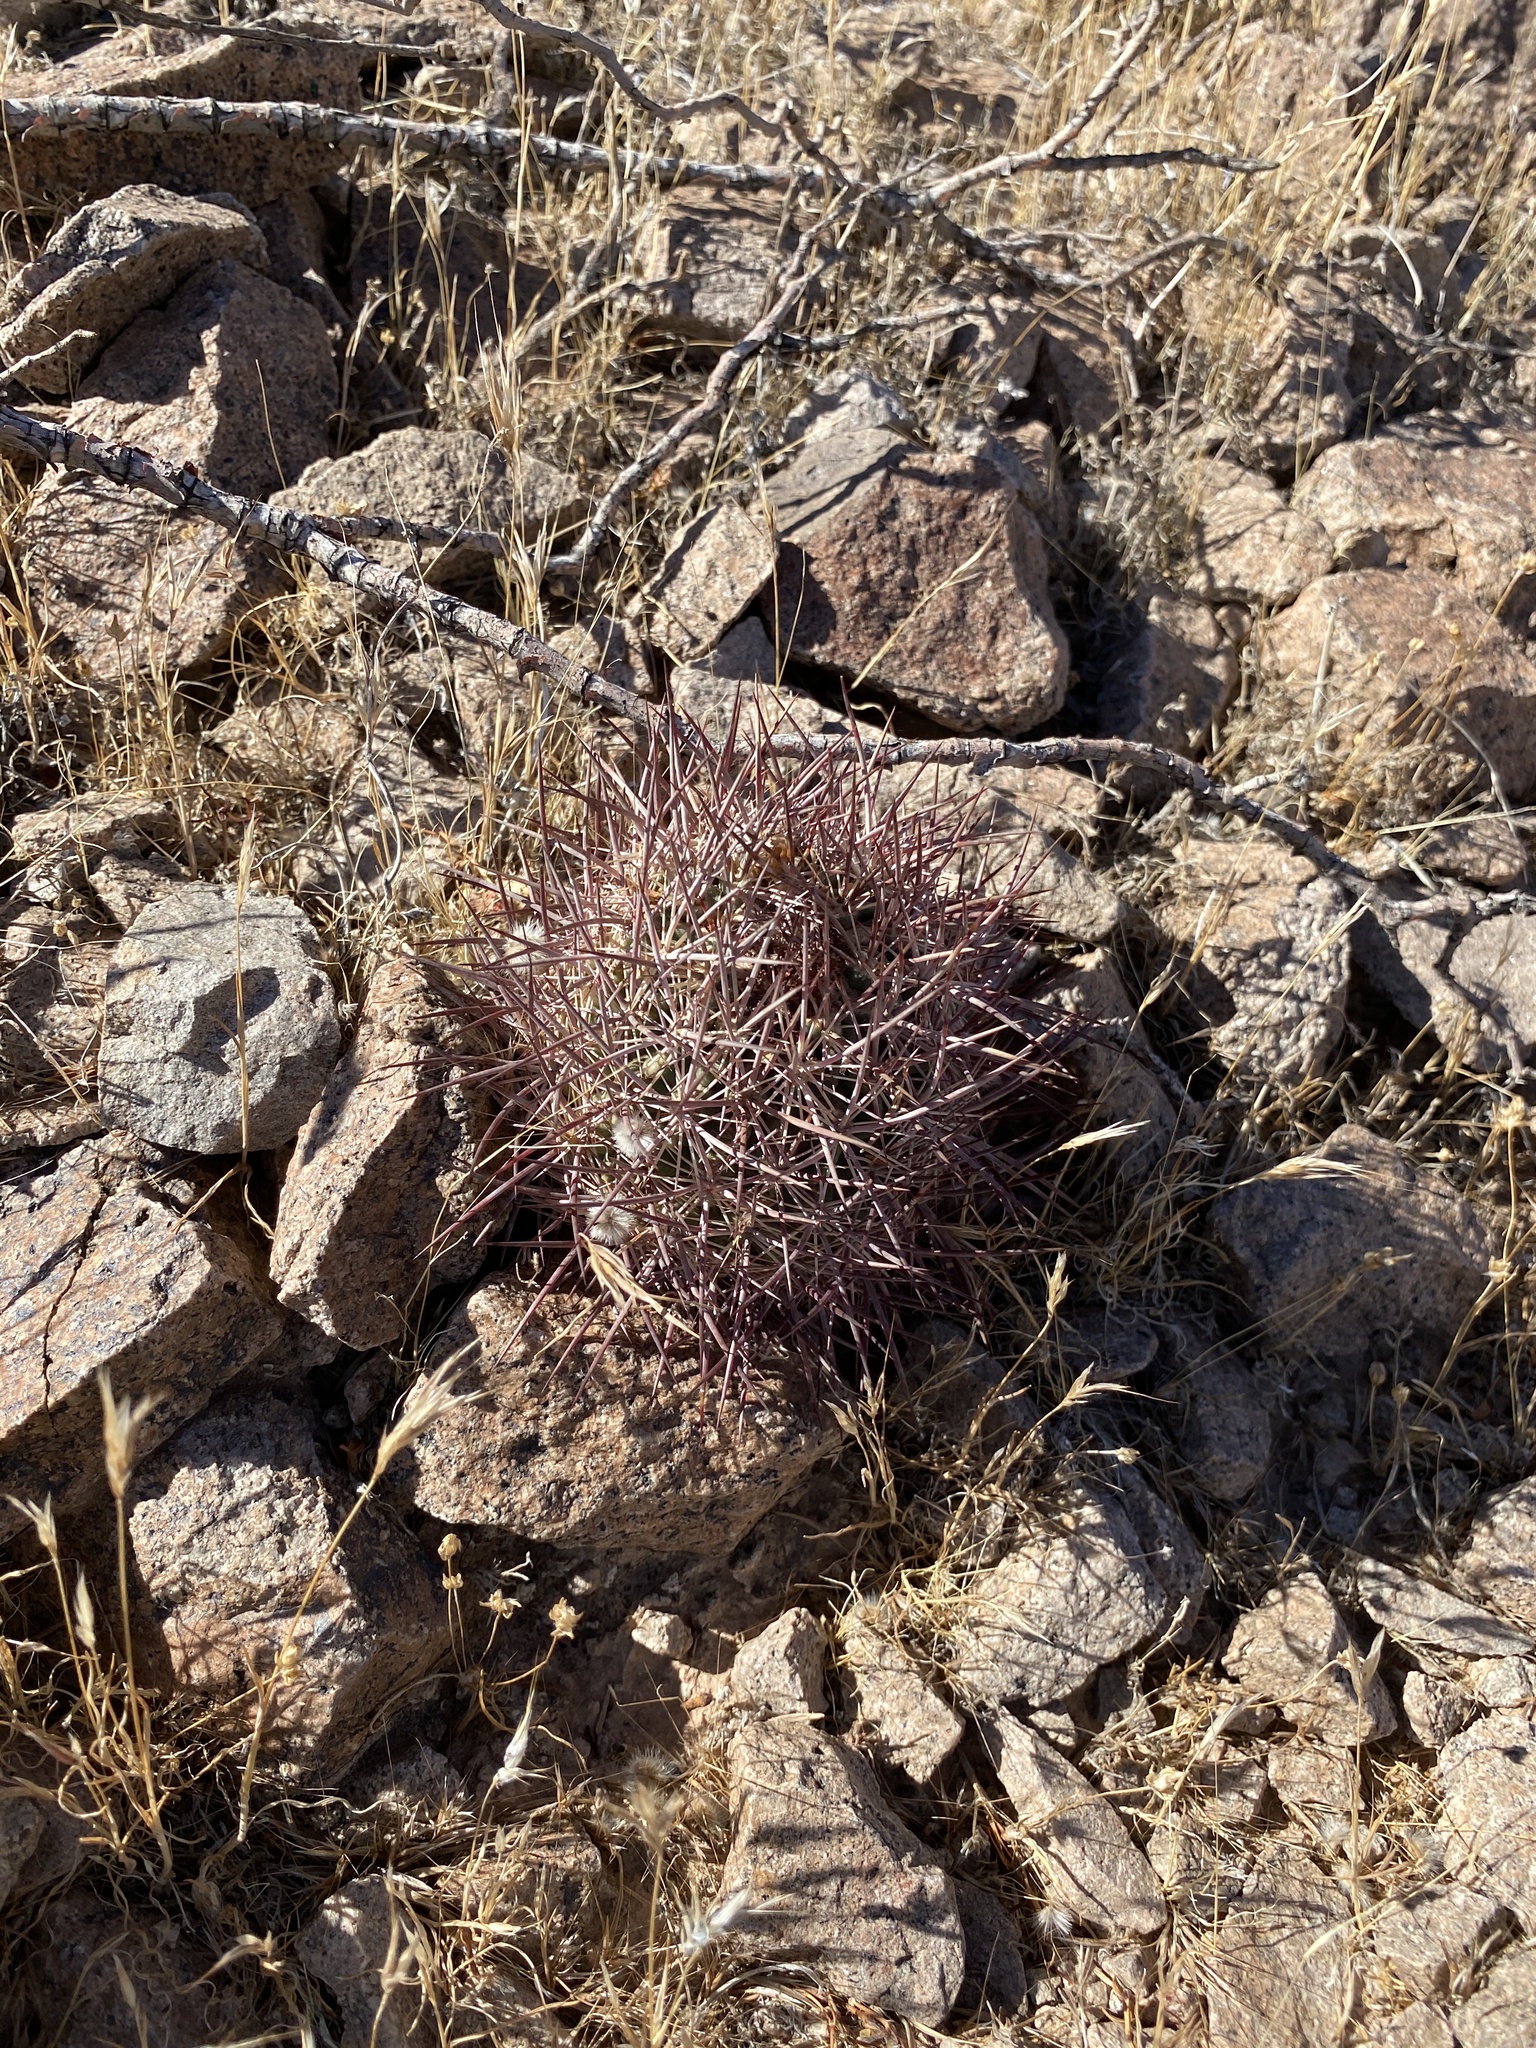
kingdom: Plantae
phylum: Tracheophyta
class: Magnoliopsida
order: Caryophyllales
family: Cactaceae
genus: Sclerocactus
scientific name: Sclerocactus johnsonii
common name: Eight-spine fishhook cactus
